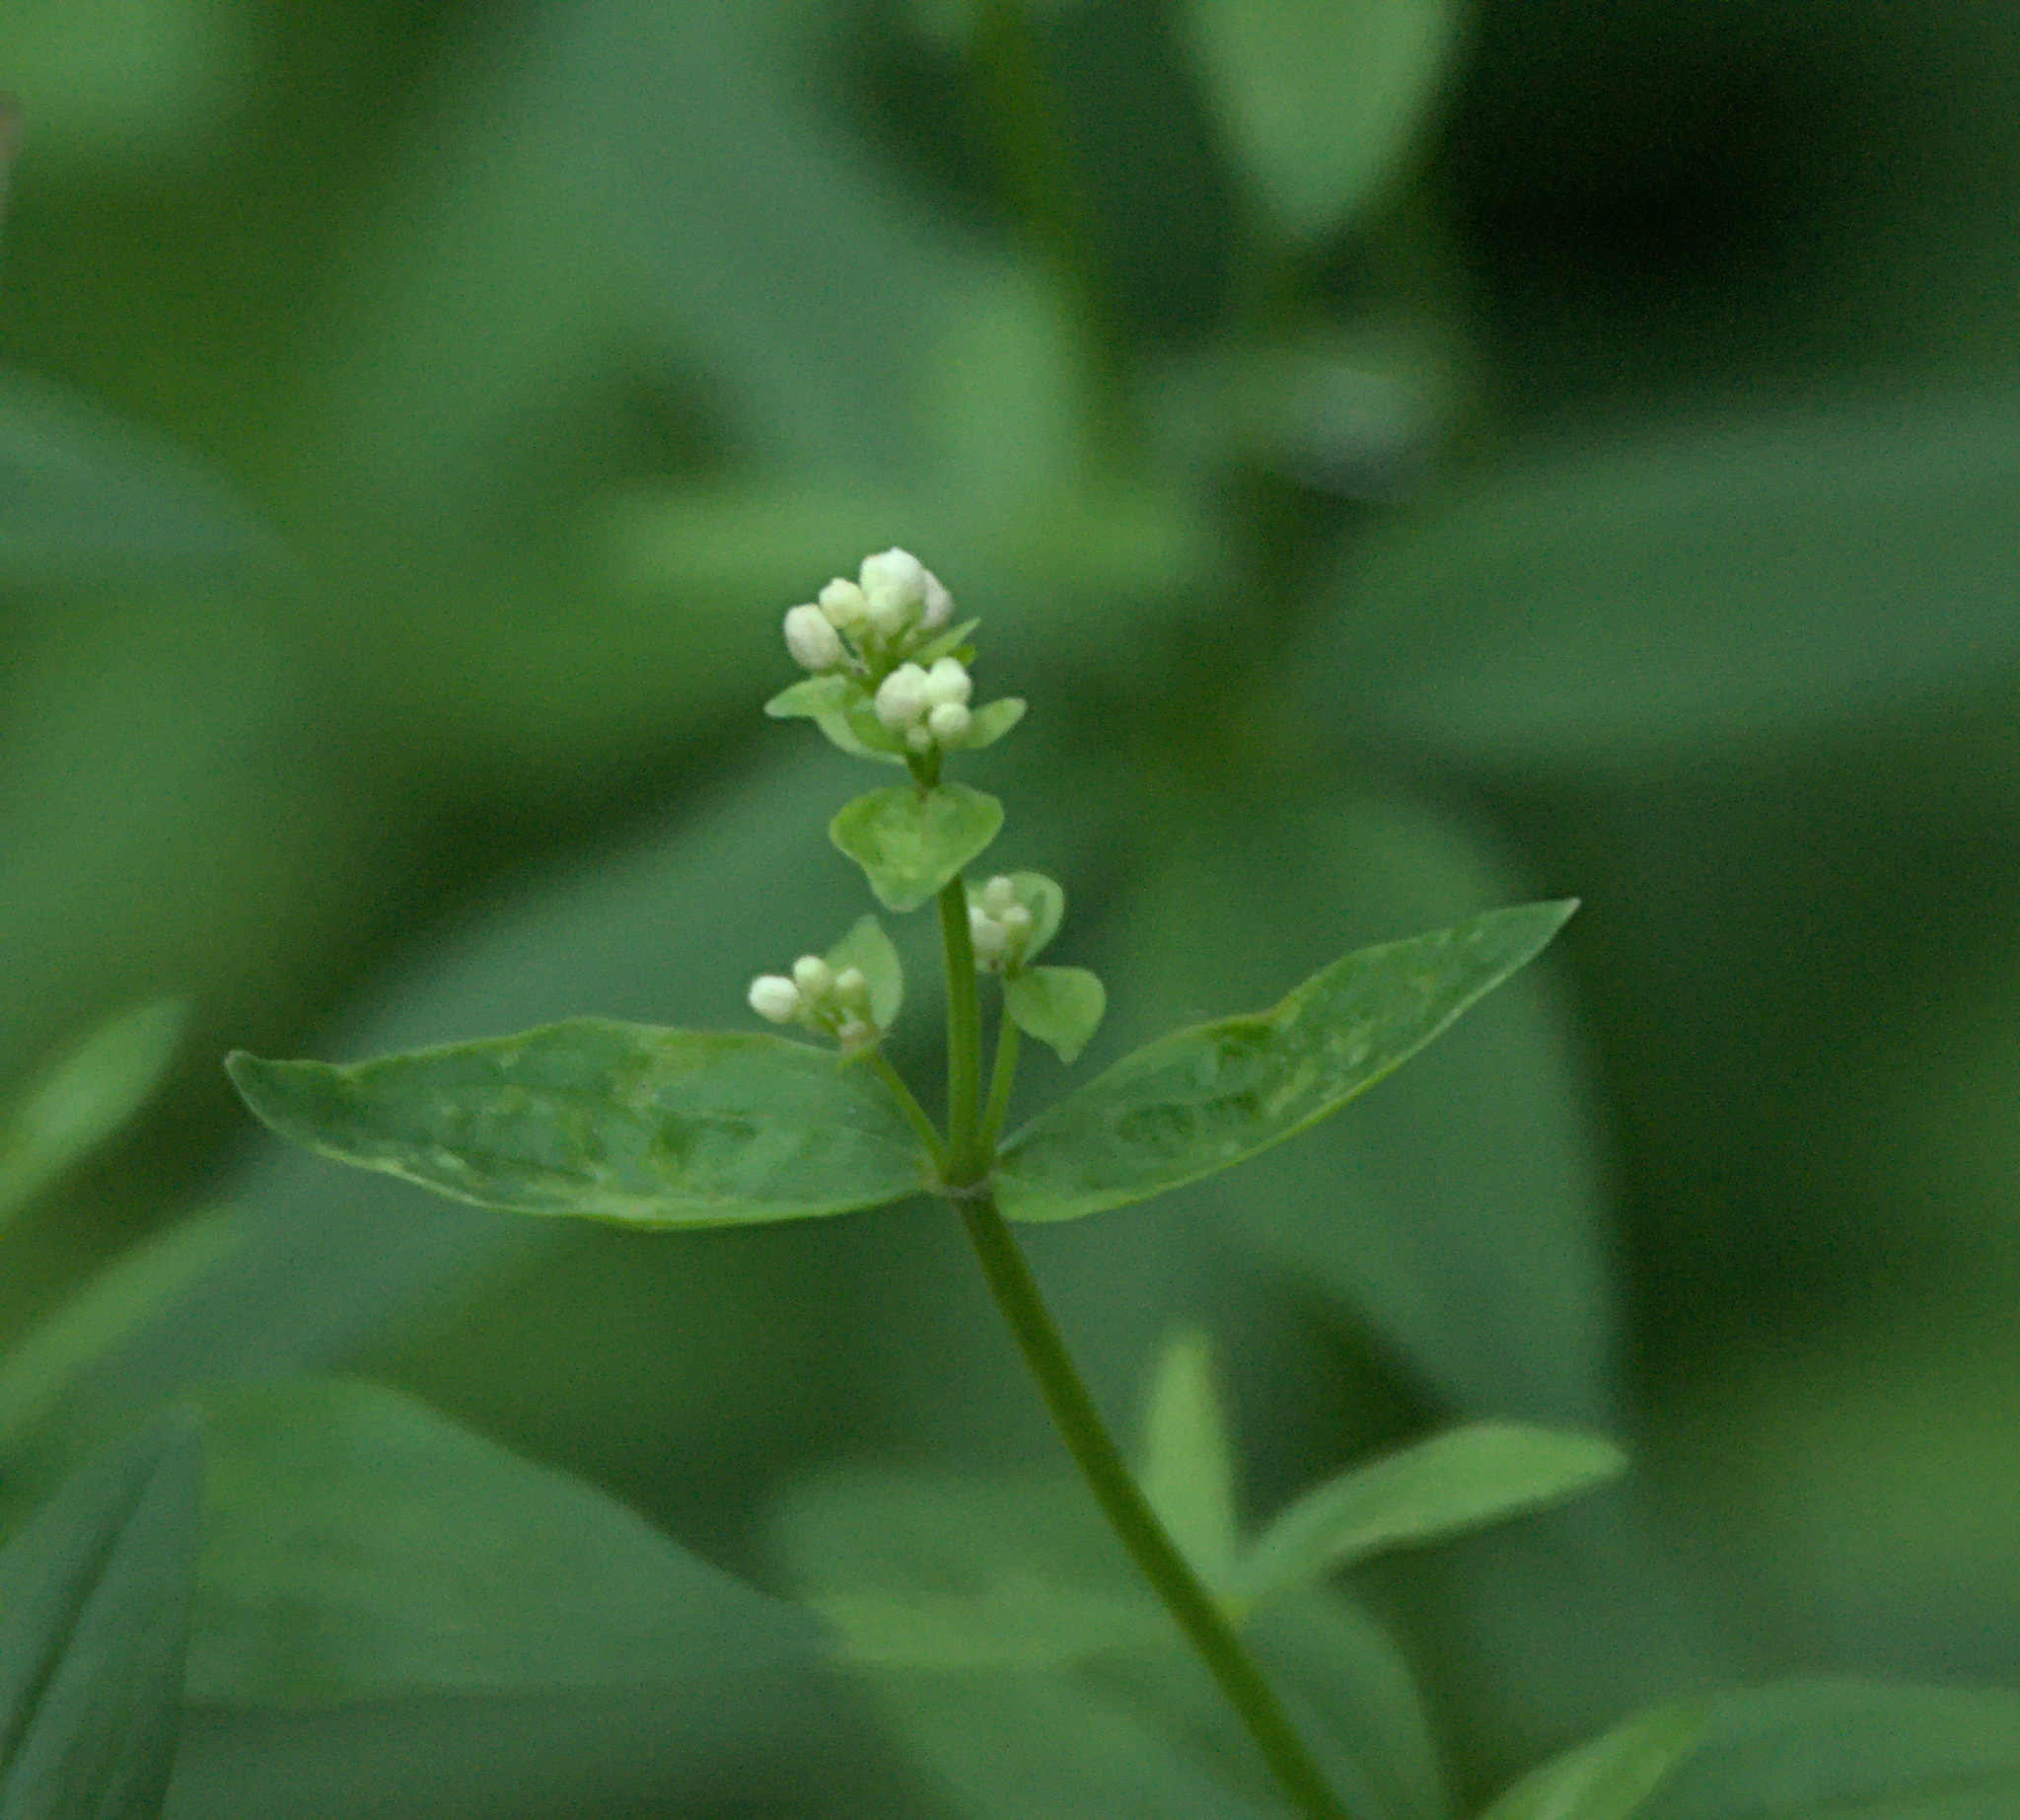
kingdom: Plantae
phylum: Tracheophyta
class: Magnoliopsida
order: Gentianales
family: Rubiaceae
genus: Galium
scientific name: Galium boreale
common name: Northern bedstraw
